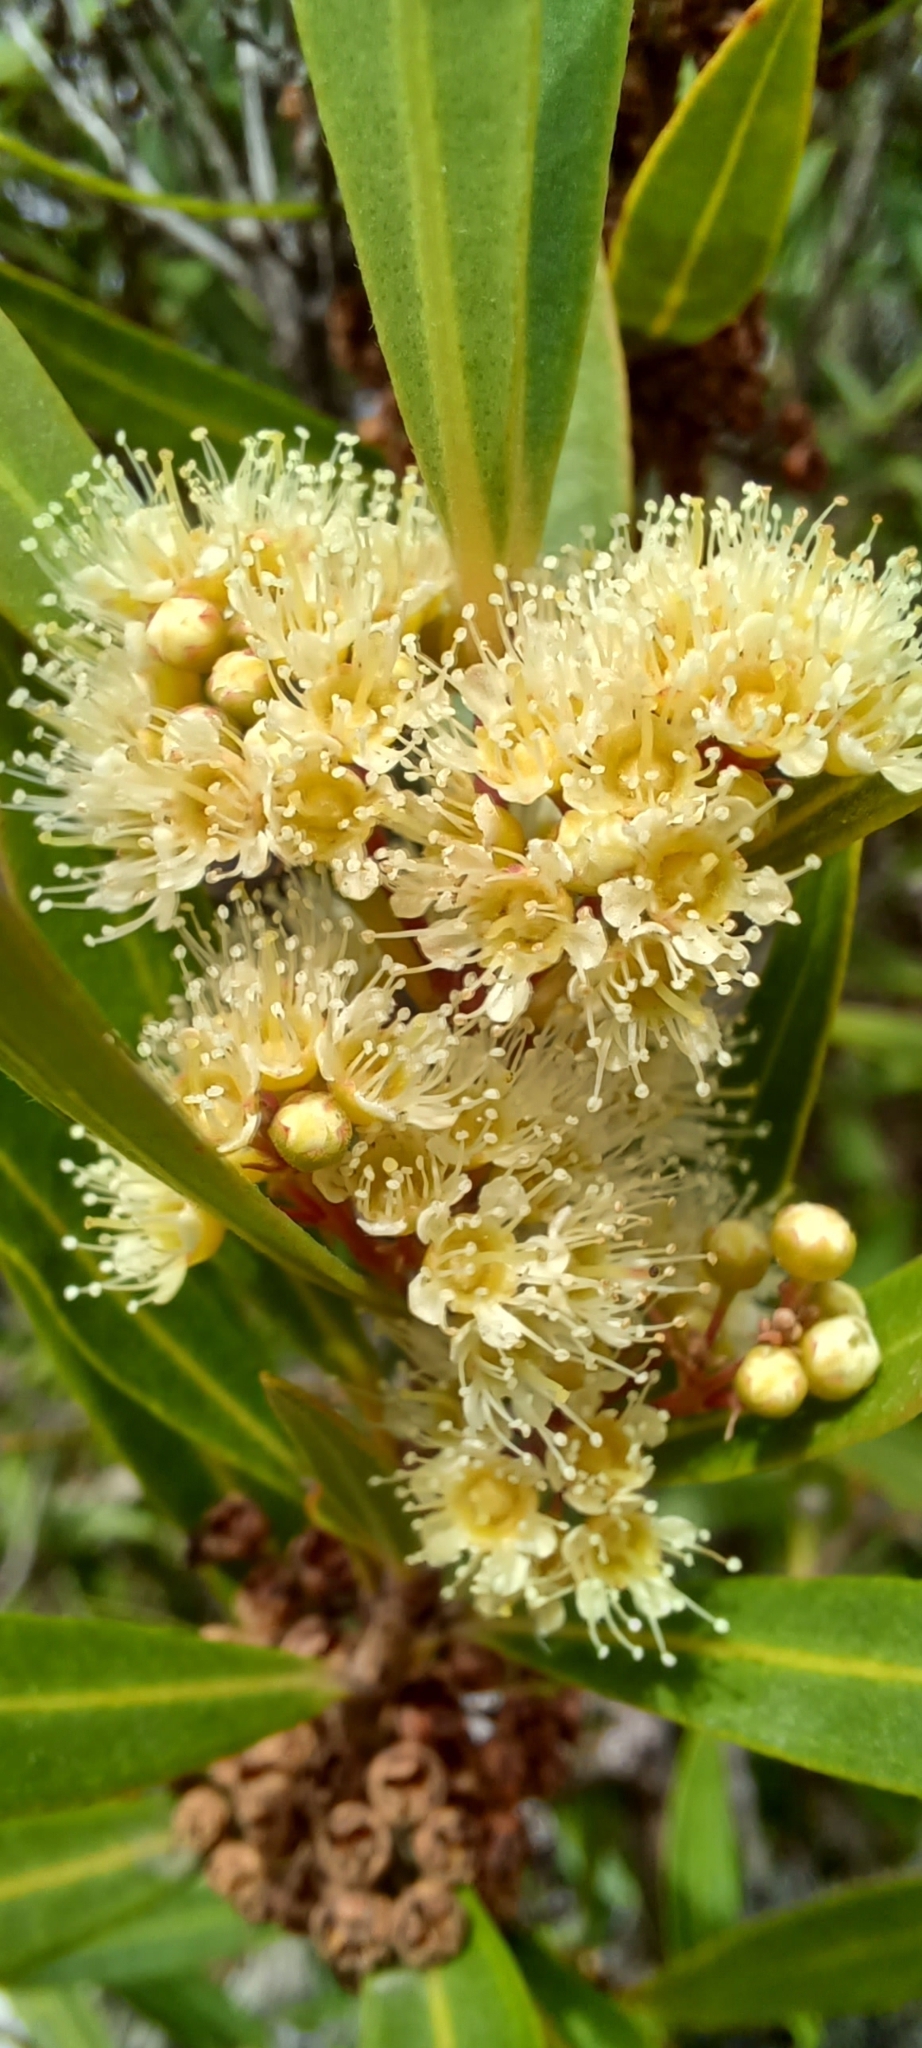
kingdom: Plantae
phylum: Tracheophyta
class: Magnoliopsida
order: Myrtales
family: Myrtaceae
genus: Callistemon
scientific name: Callistemon lanceolatus
